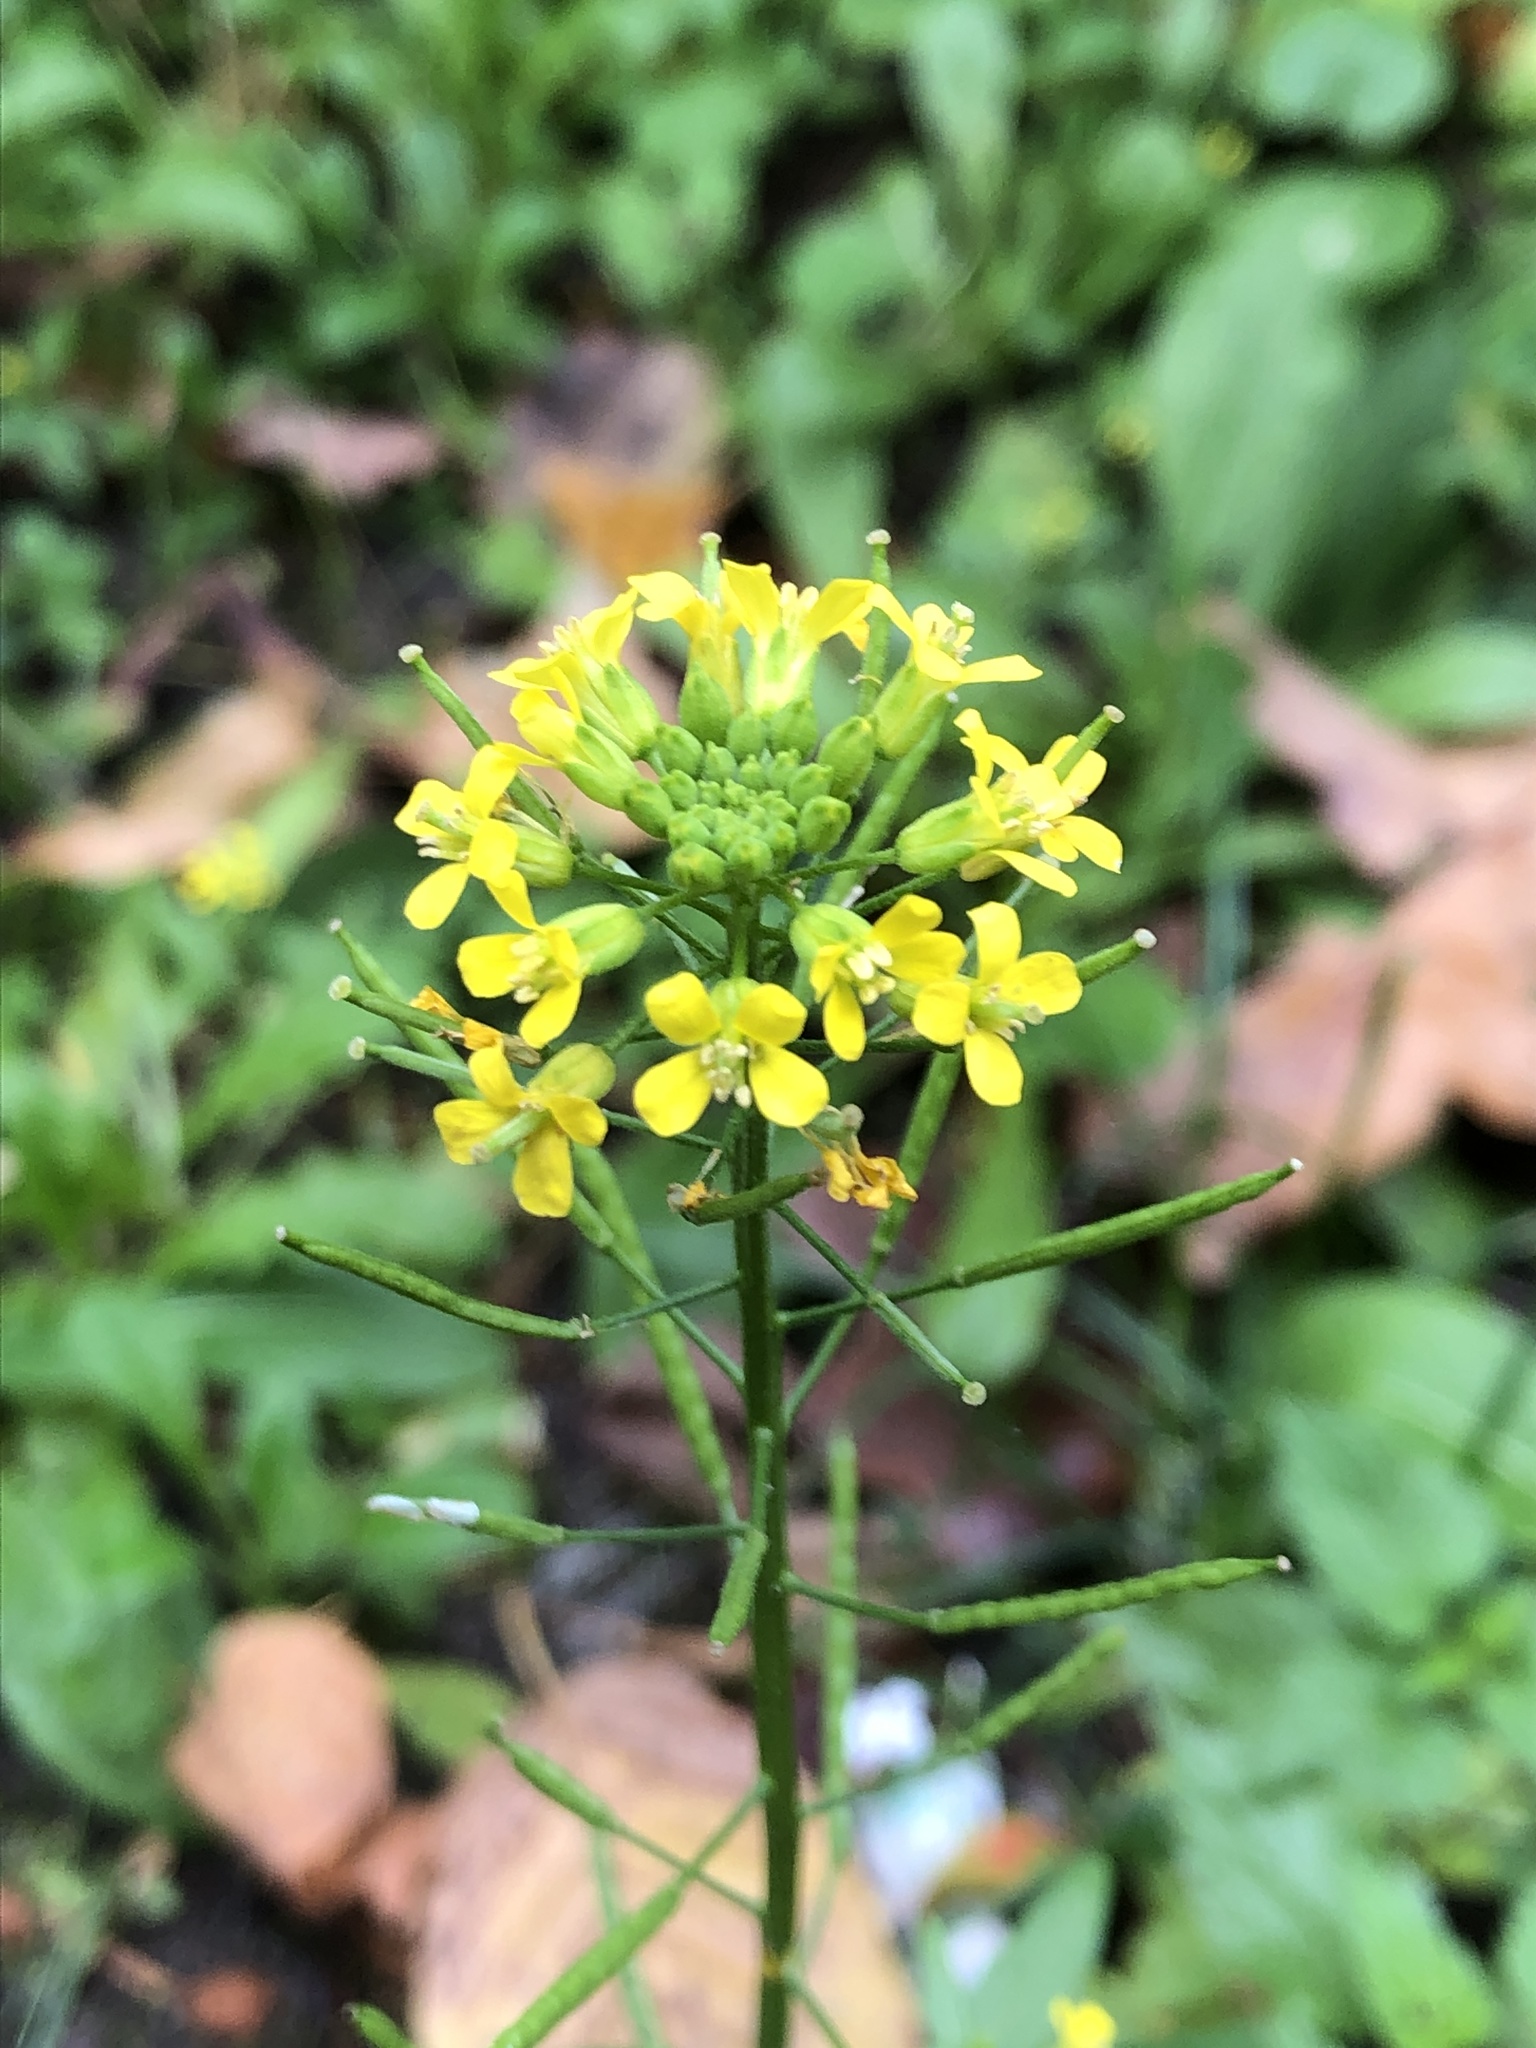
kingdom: Plantae
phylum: Tracheophyta
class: Magnoliopsida
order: Brassicales
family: Brassicaceae
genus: Erysimum
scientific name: Erysimum cheiranthoides
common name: Treacle mustard
